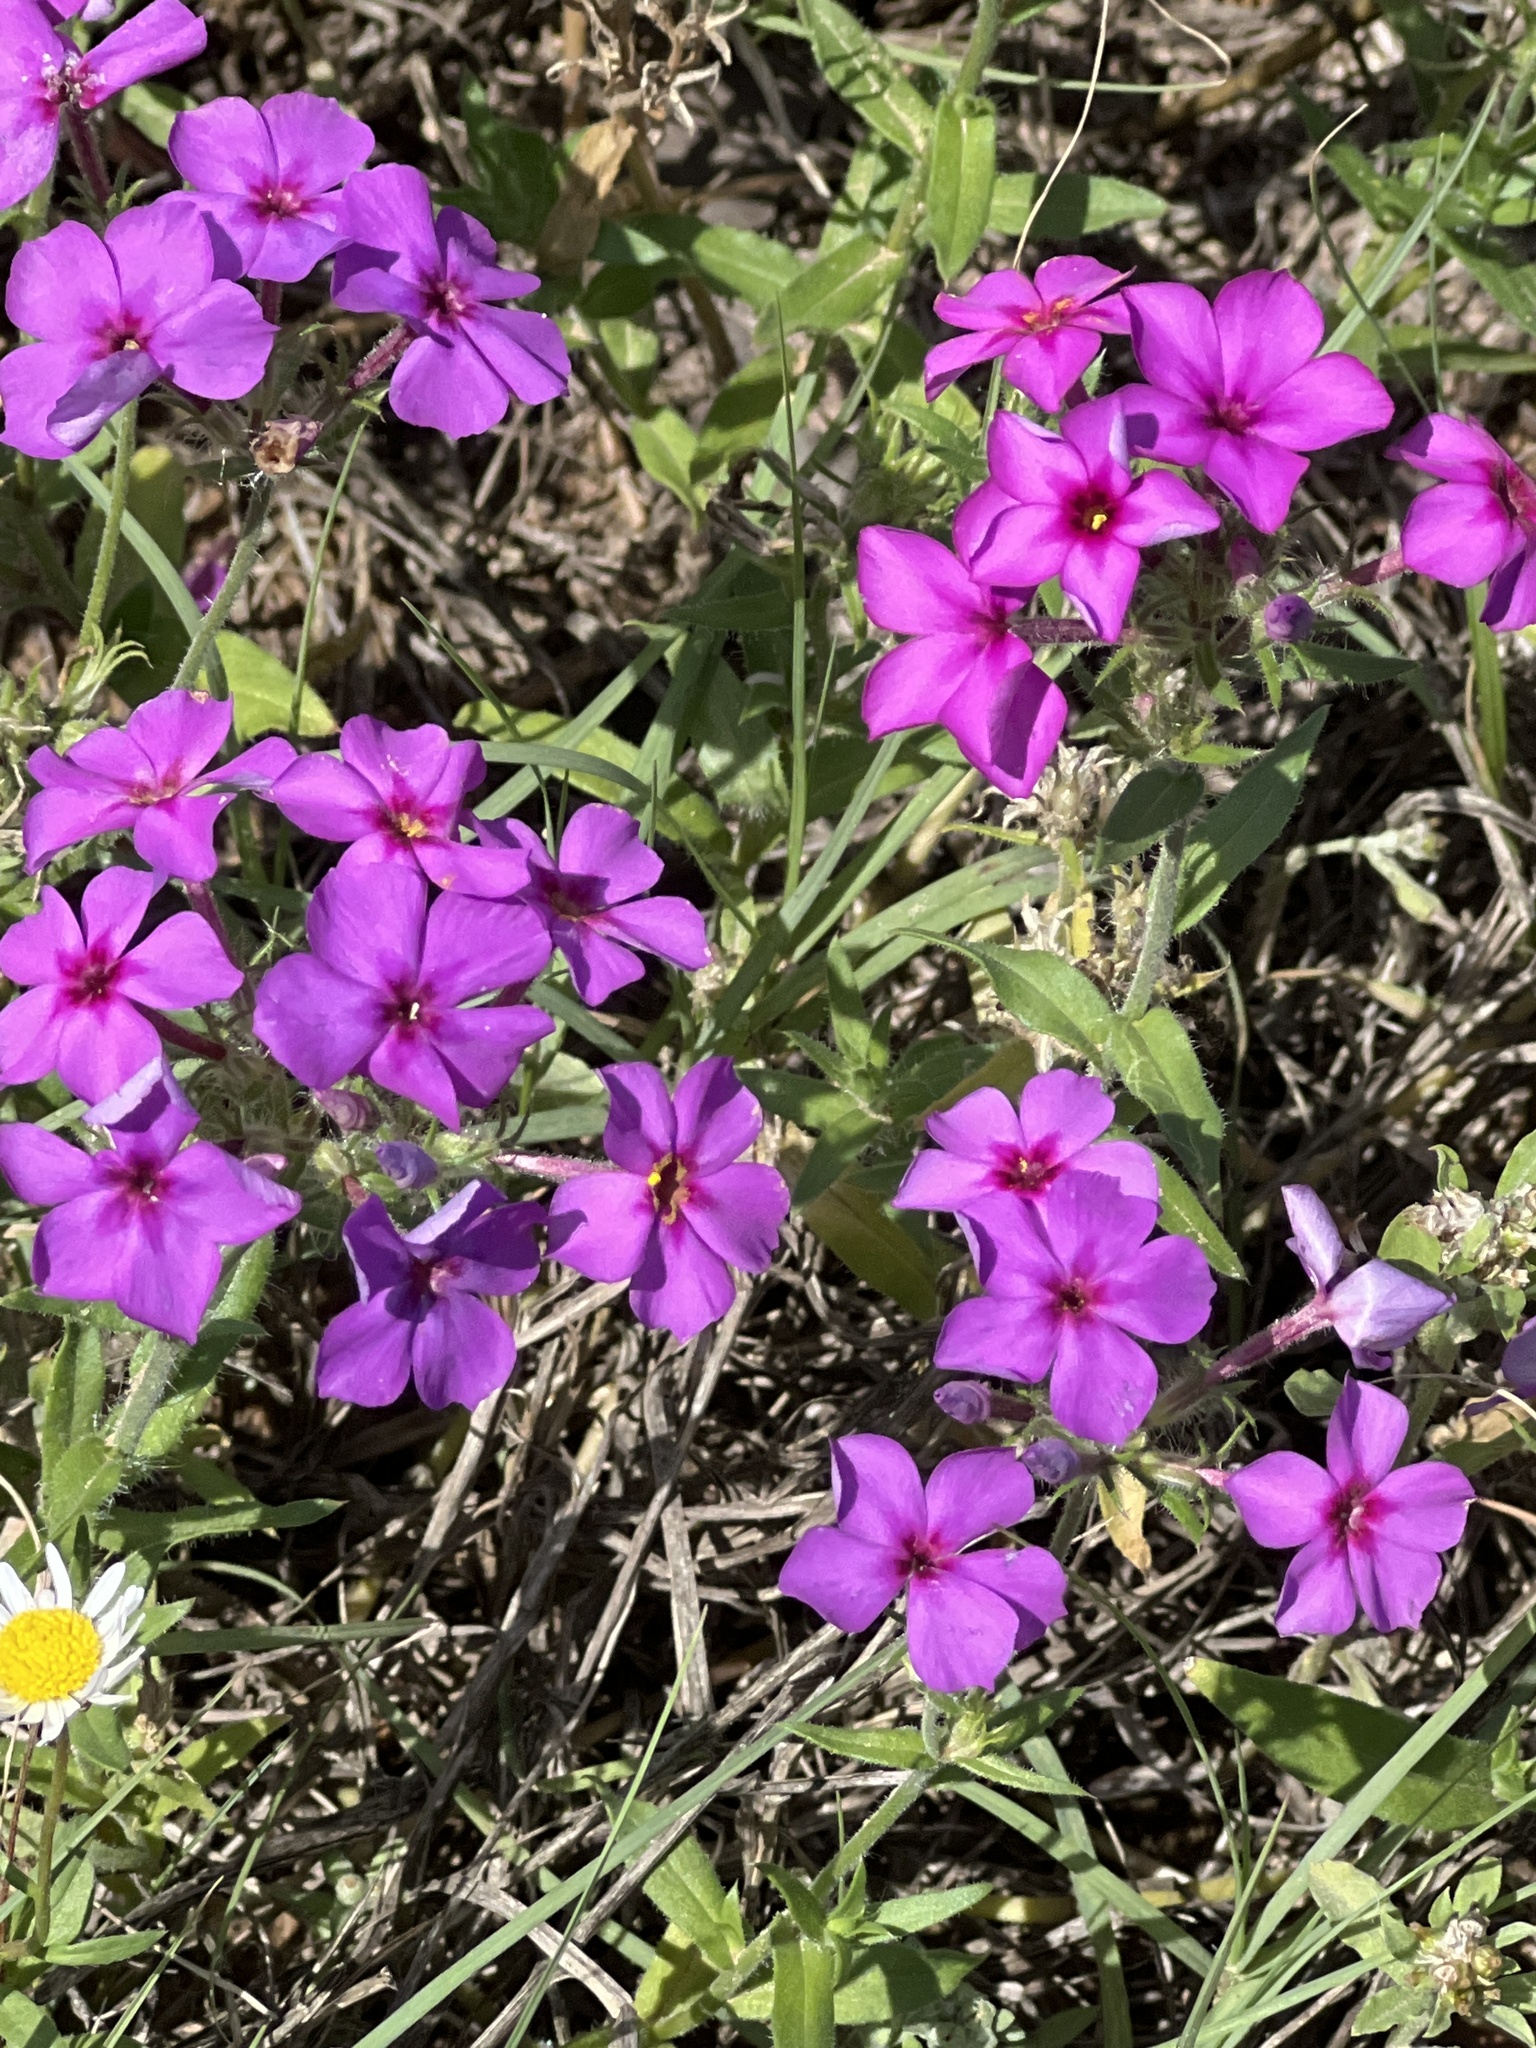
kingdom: Plantae
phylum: Tracheophyta
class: Magnoliopsida
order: Ericales
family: Polemoniaceae
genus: Phlox
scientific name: Phlox drummondii
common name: Drummond's phlox
